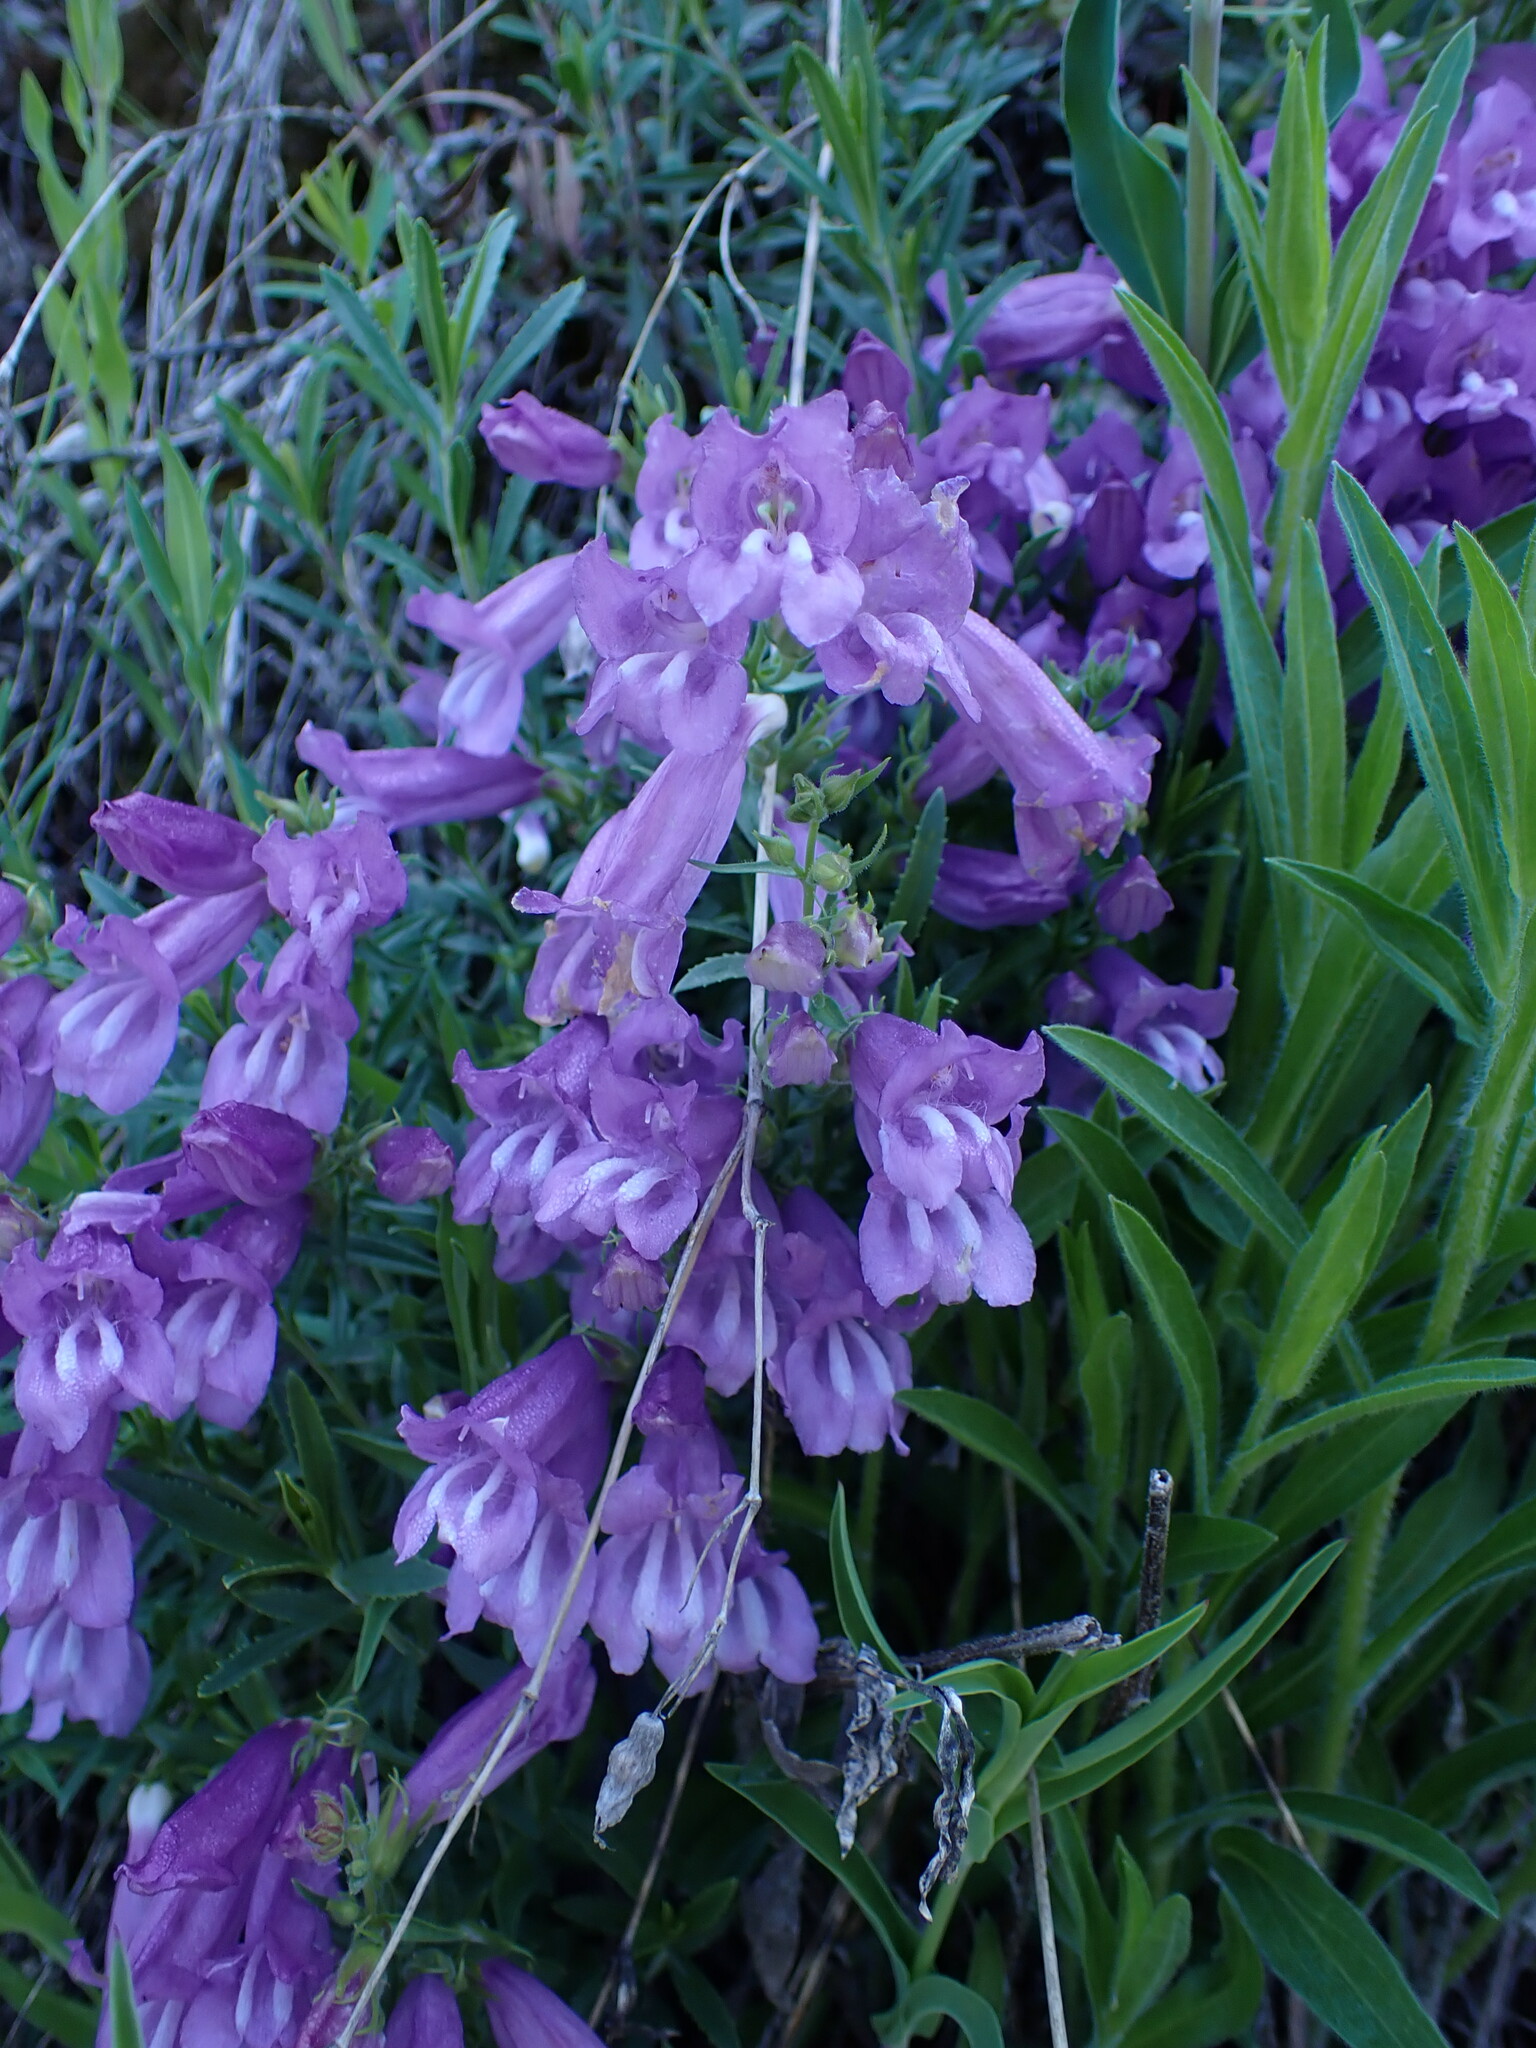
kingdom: Plantae
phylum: Tracheophyta
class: Magnoliopsida
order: Lamiales
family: Plantaginaceae
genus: Penstemon
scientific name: Penstemon fruticosus
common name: Bush penstemon
